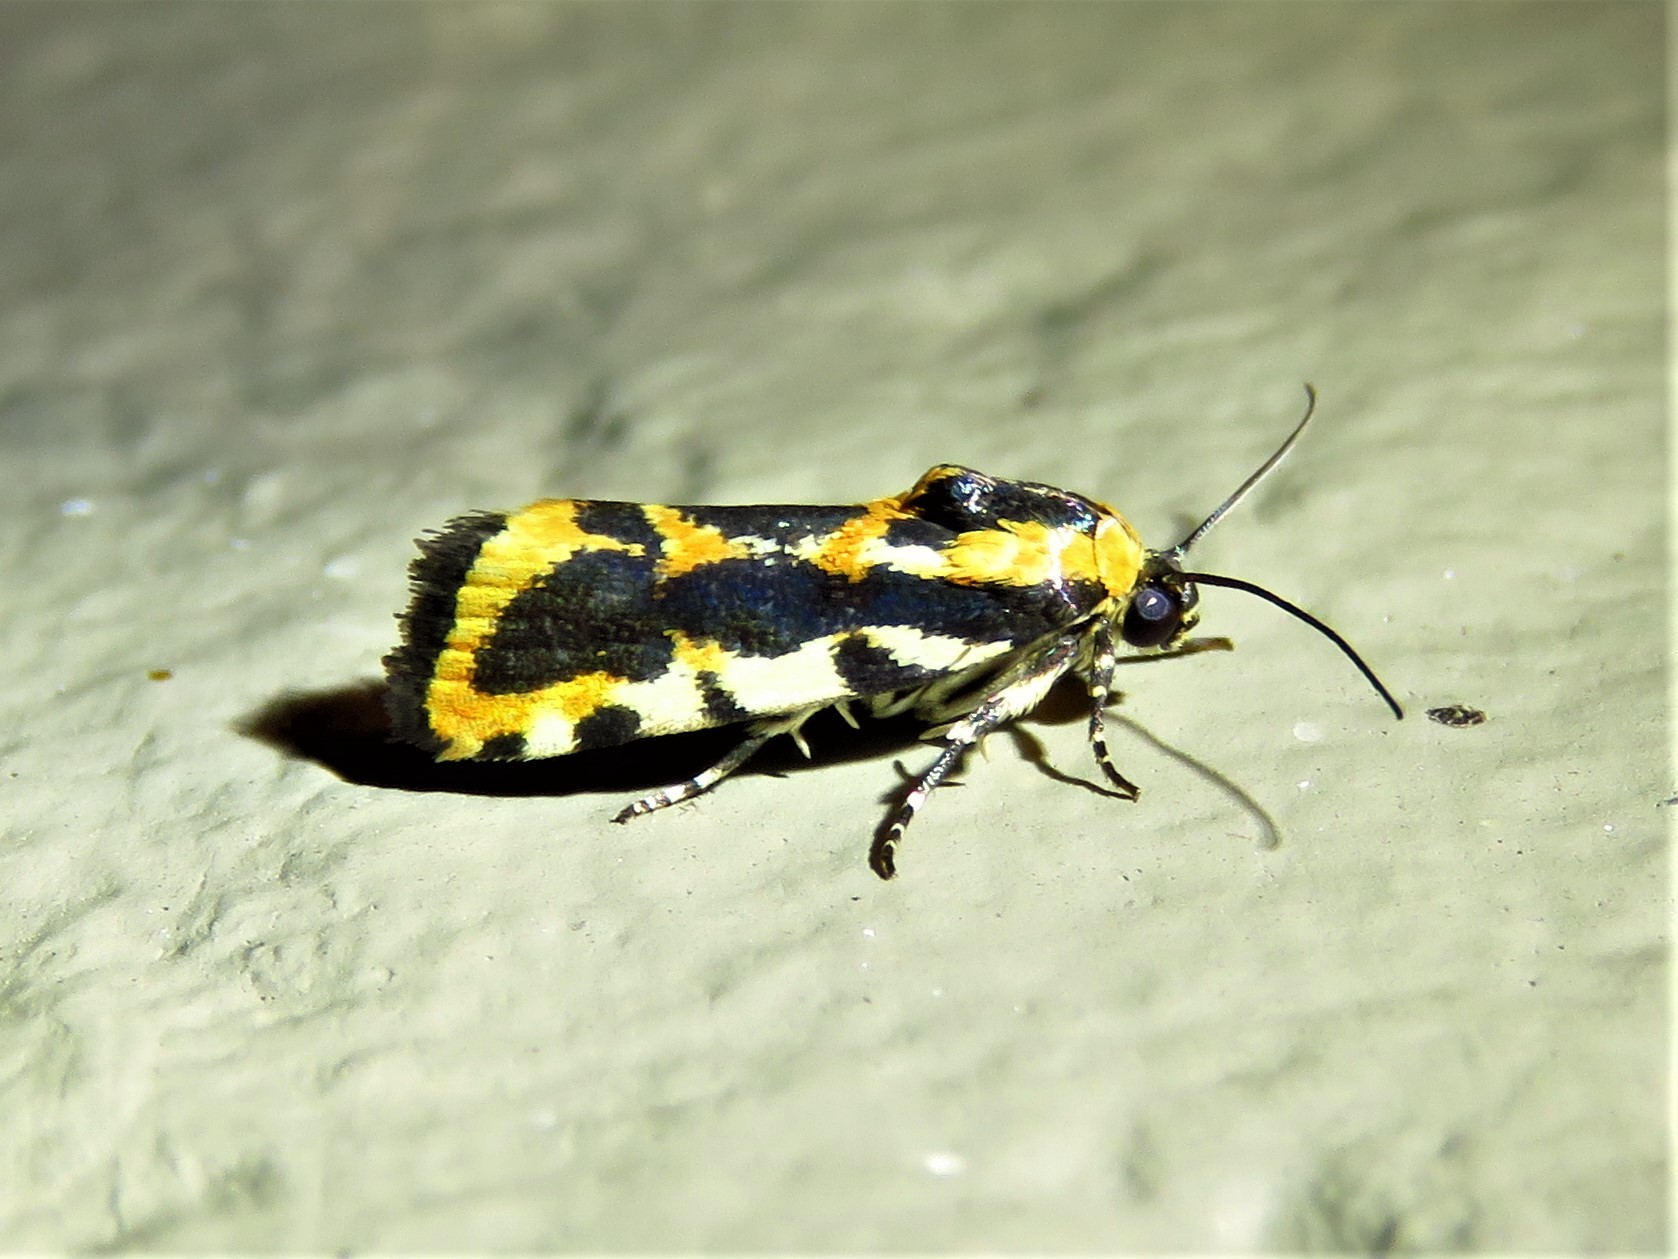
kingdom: Animalia
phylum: Arthropoda
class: Insecta
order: Lepidoptera
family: Noctuidae
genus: Acontia
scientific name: Acontia leo
